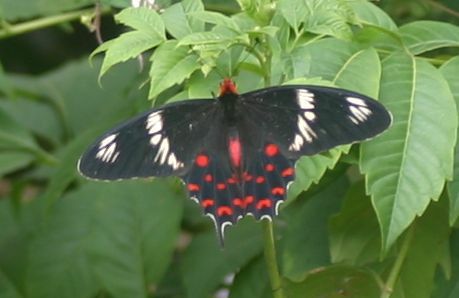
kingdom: Animalia
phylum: Arthropoda
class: Insecta
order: Lepidoptera
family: Papilionidae
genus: Pachliopta
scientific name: Pachliopta hector
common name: Crimson rose
